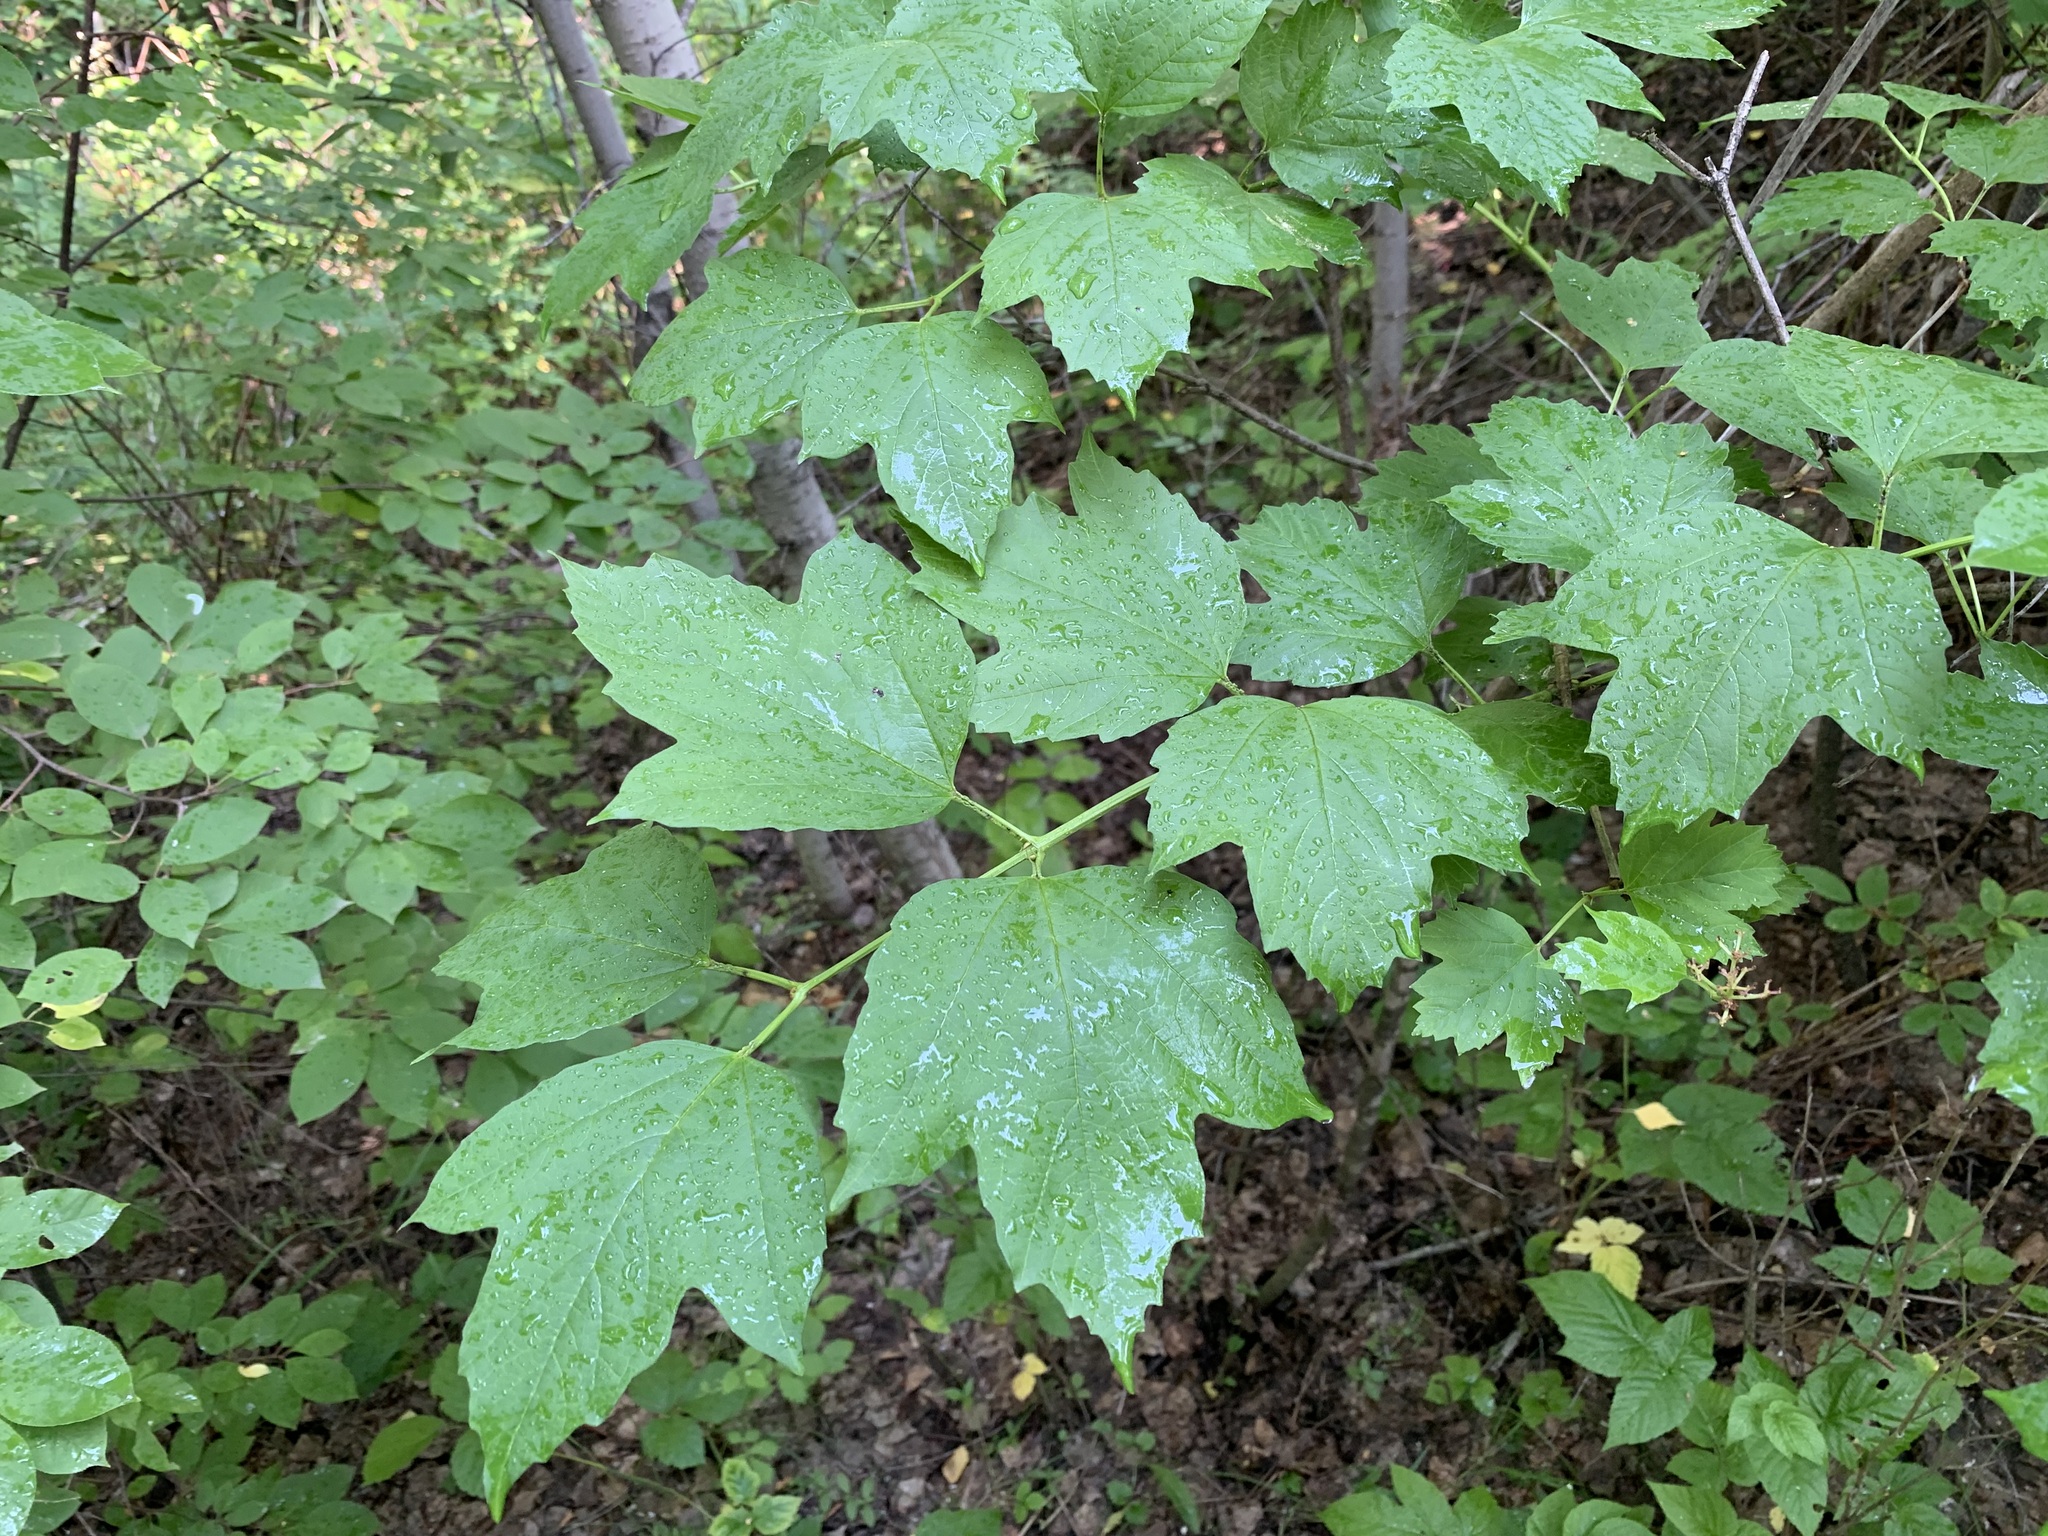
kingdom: Plantae
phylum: Tracheophyta
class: Magnoliopsida
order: Dipsacales
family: Viburnaceae
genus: Viburnum
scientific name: Viburnum opulus
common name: Guelder-rose
